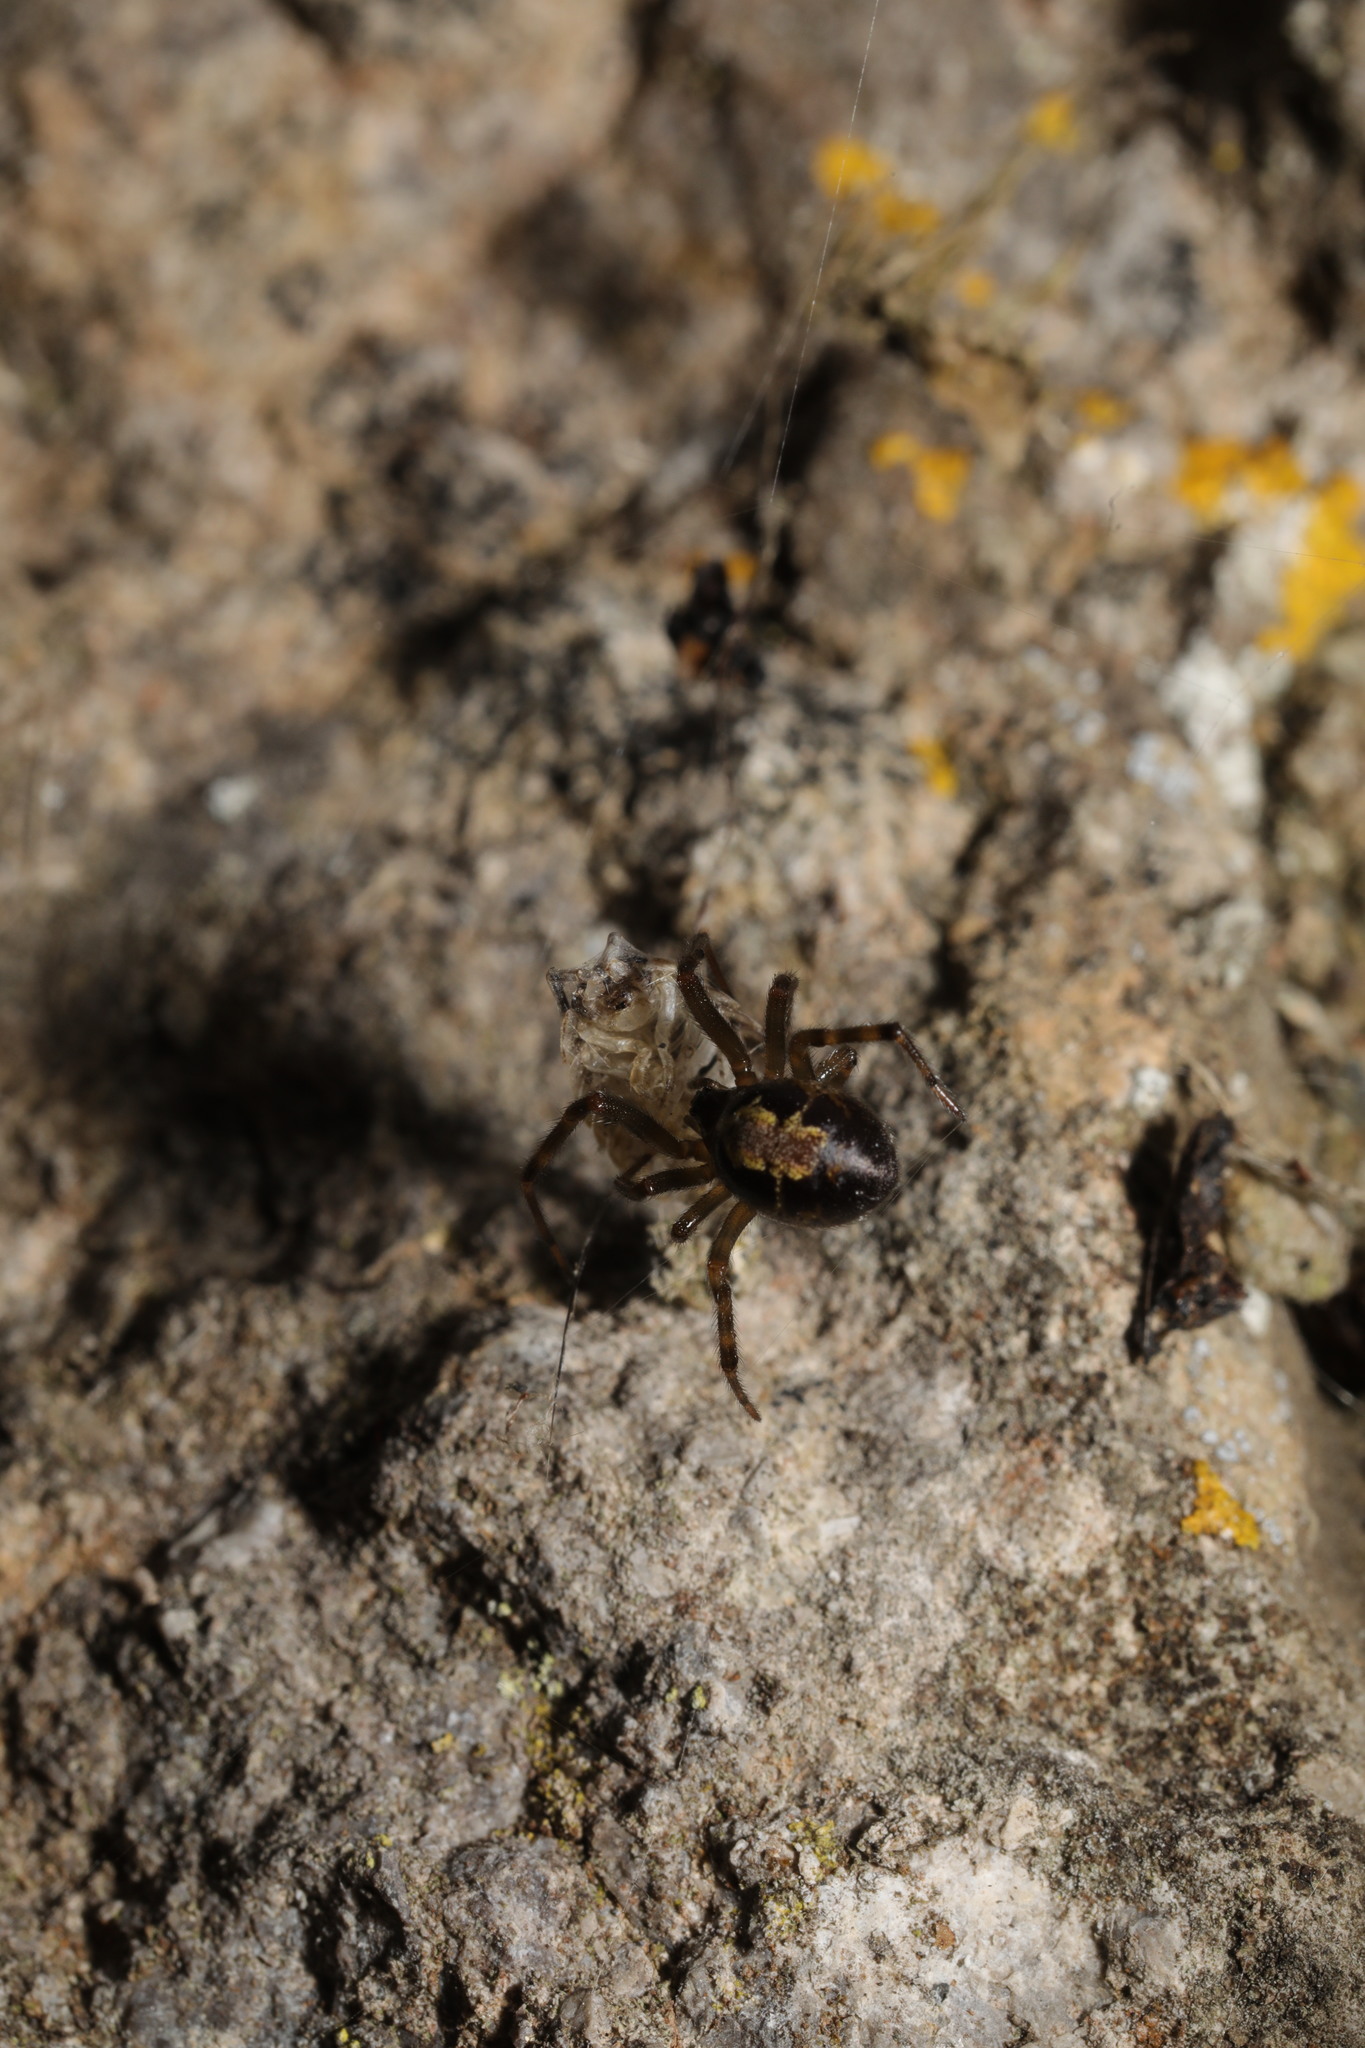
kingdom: Animalia
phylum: Arthropoda
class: Arachnida
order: Araneae
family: Theridiidae
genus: Steatoda
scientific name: Steatoda nobilis
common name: Cobweb weaver
